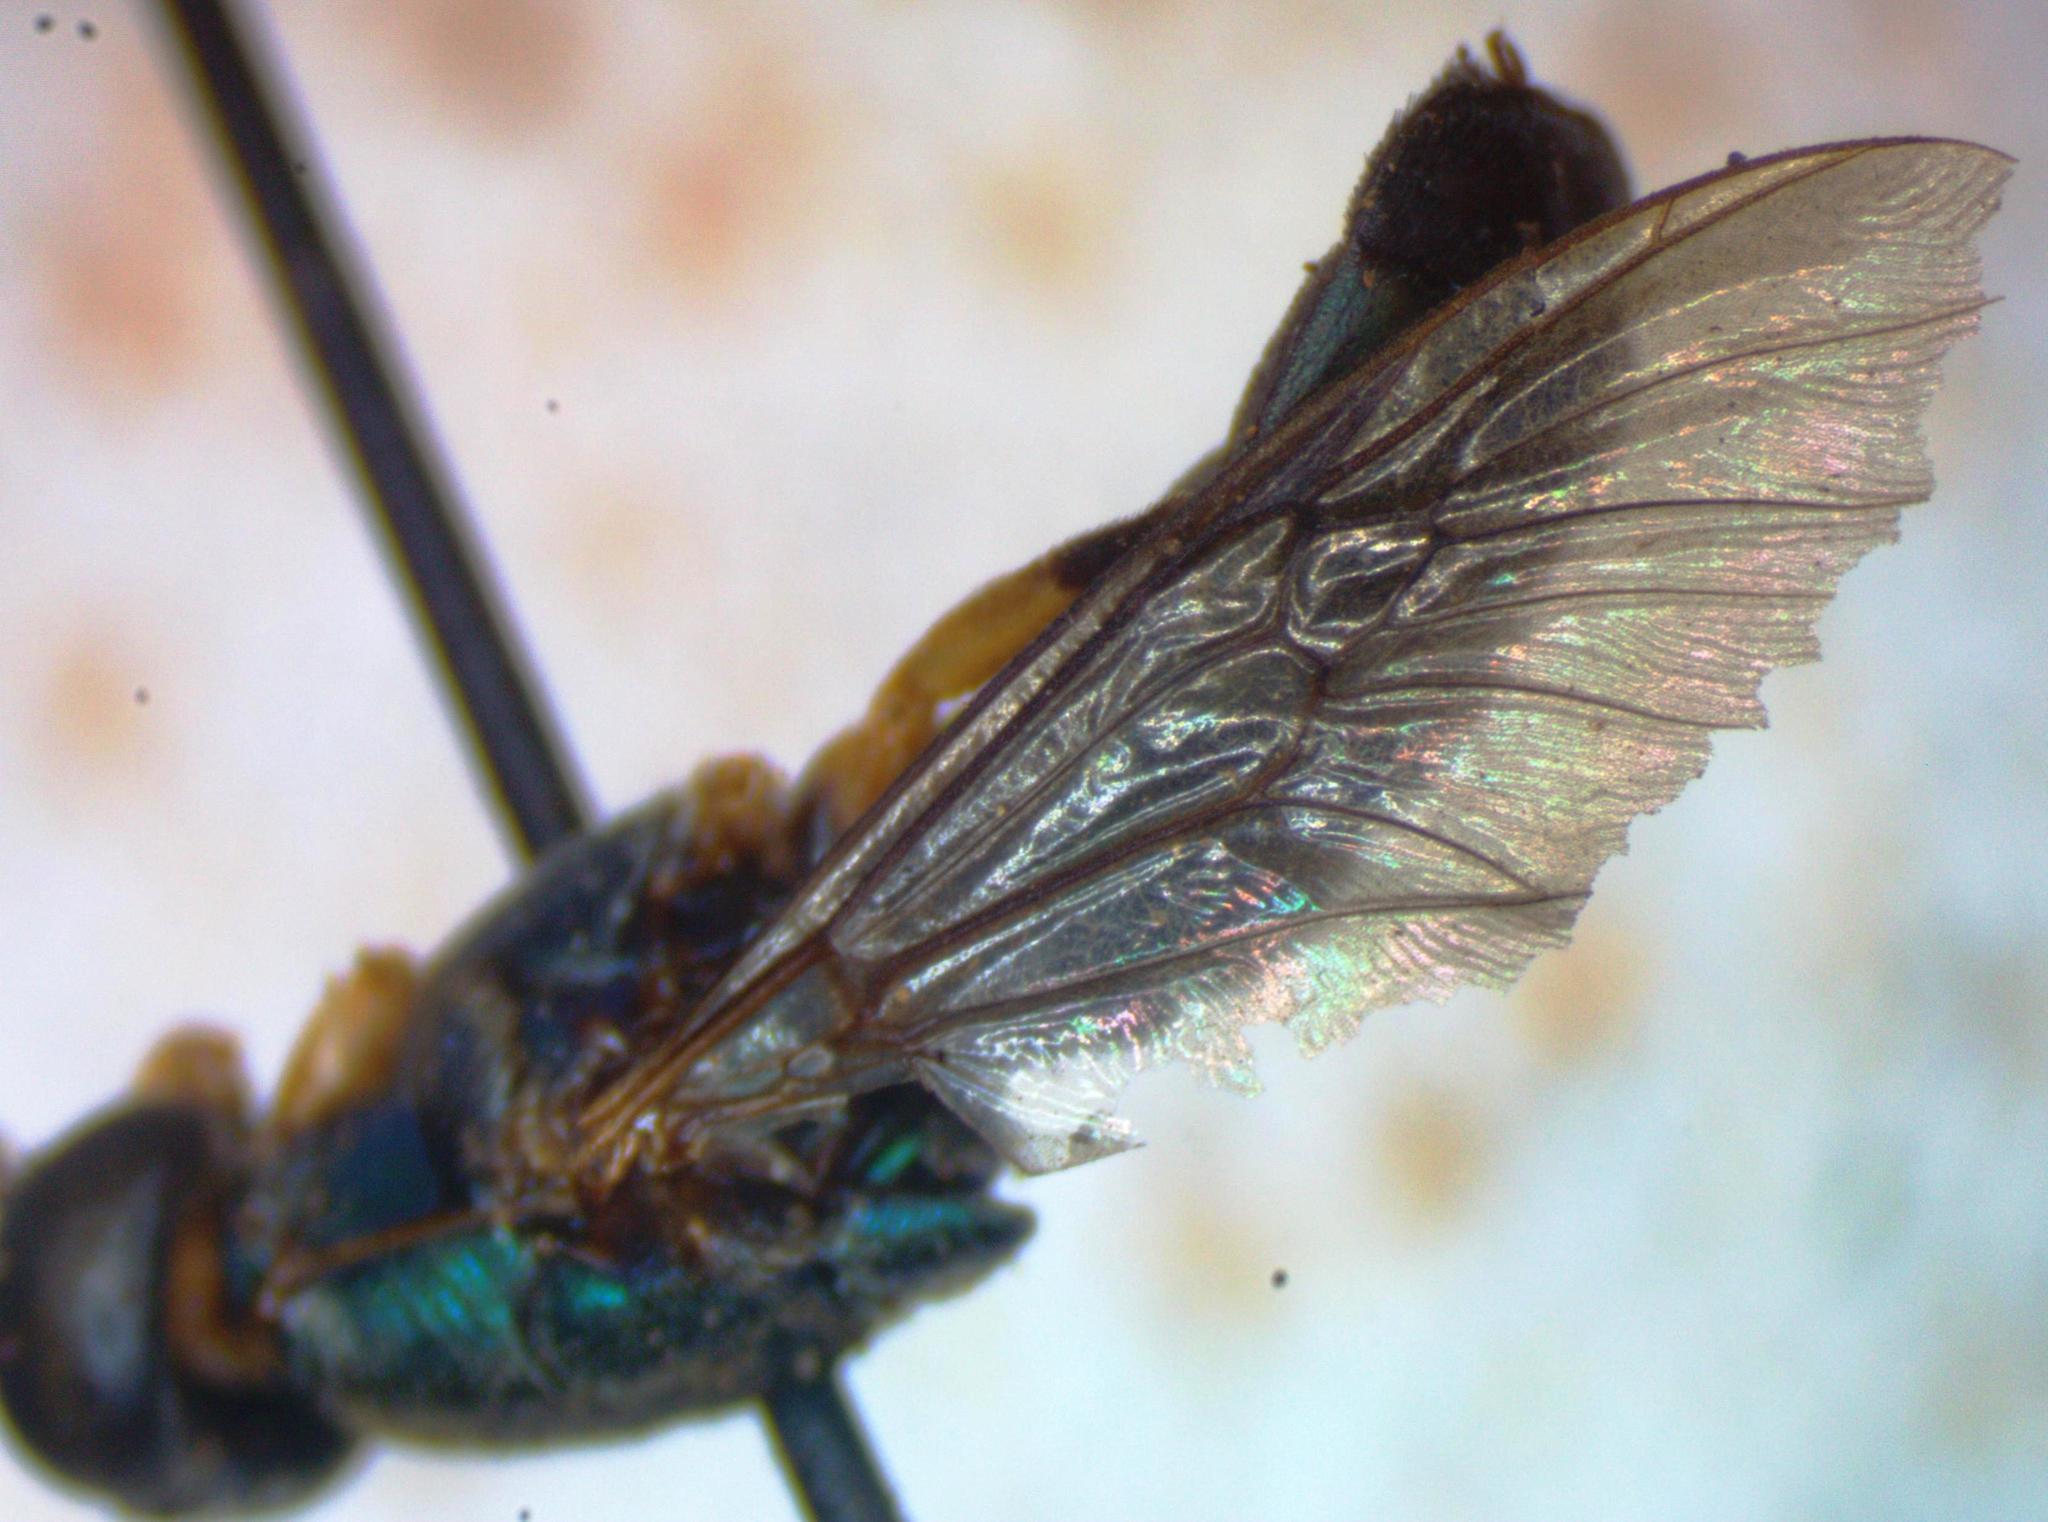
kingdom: Animalia
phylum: Arthropoda
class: Insecta
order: Diptera
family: Stratiomyidae
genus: Himantigera
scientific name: Himantigera silvestris
